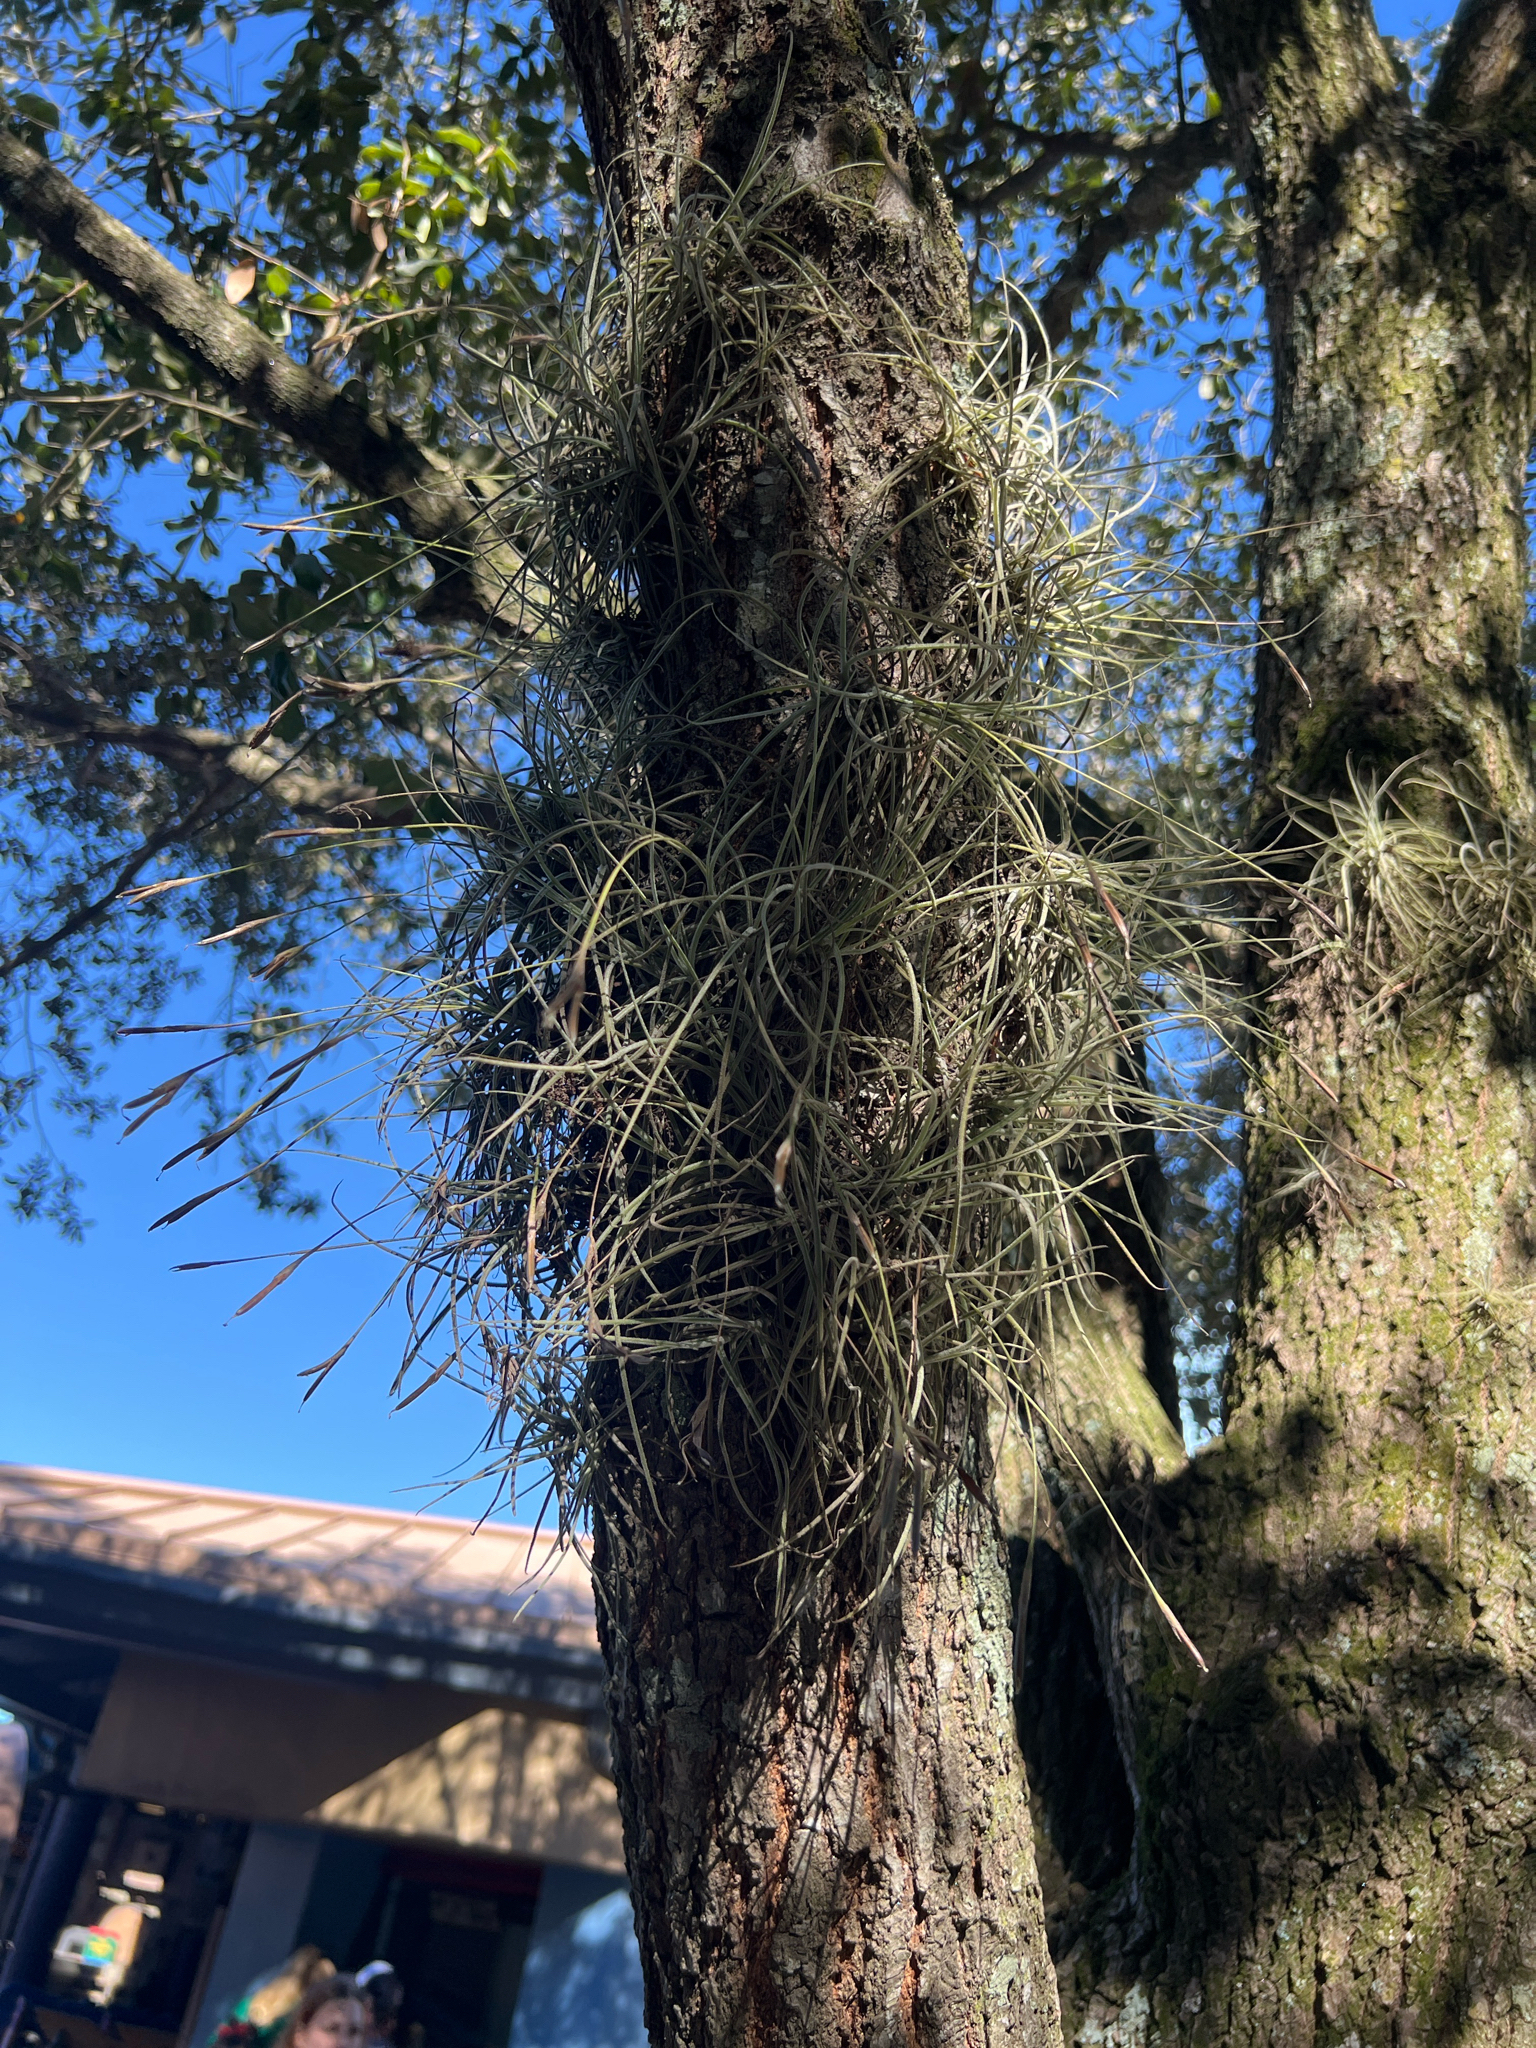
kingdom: Plantae
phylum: Tracheophyta
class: Liliopsida
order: Poales
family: Bromeliaceae
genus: Tillandsia
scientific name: Tillandsia recurvata
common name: Small ballmoss
